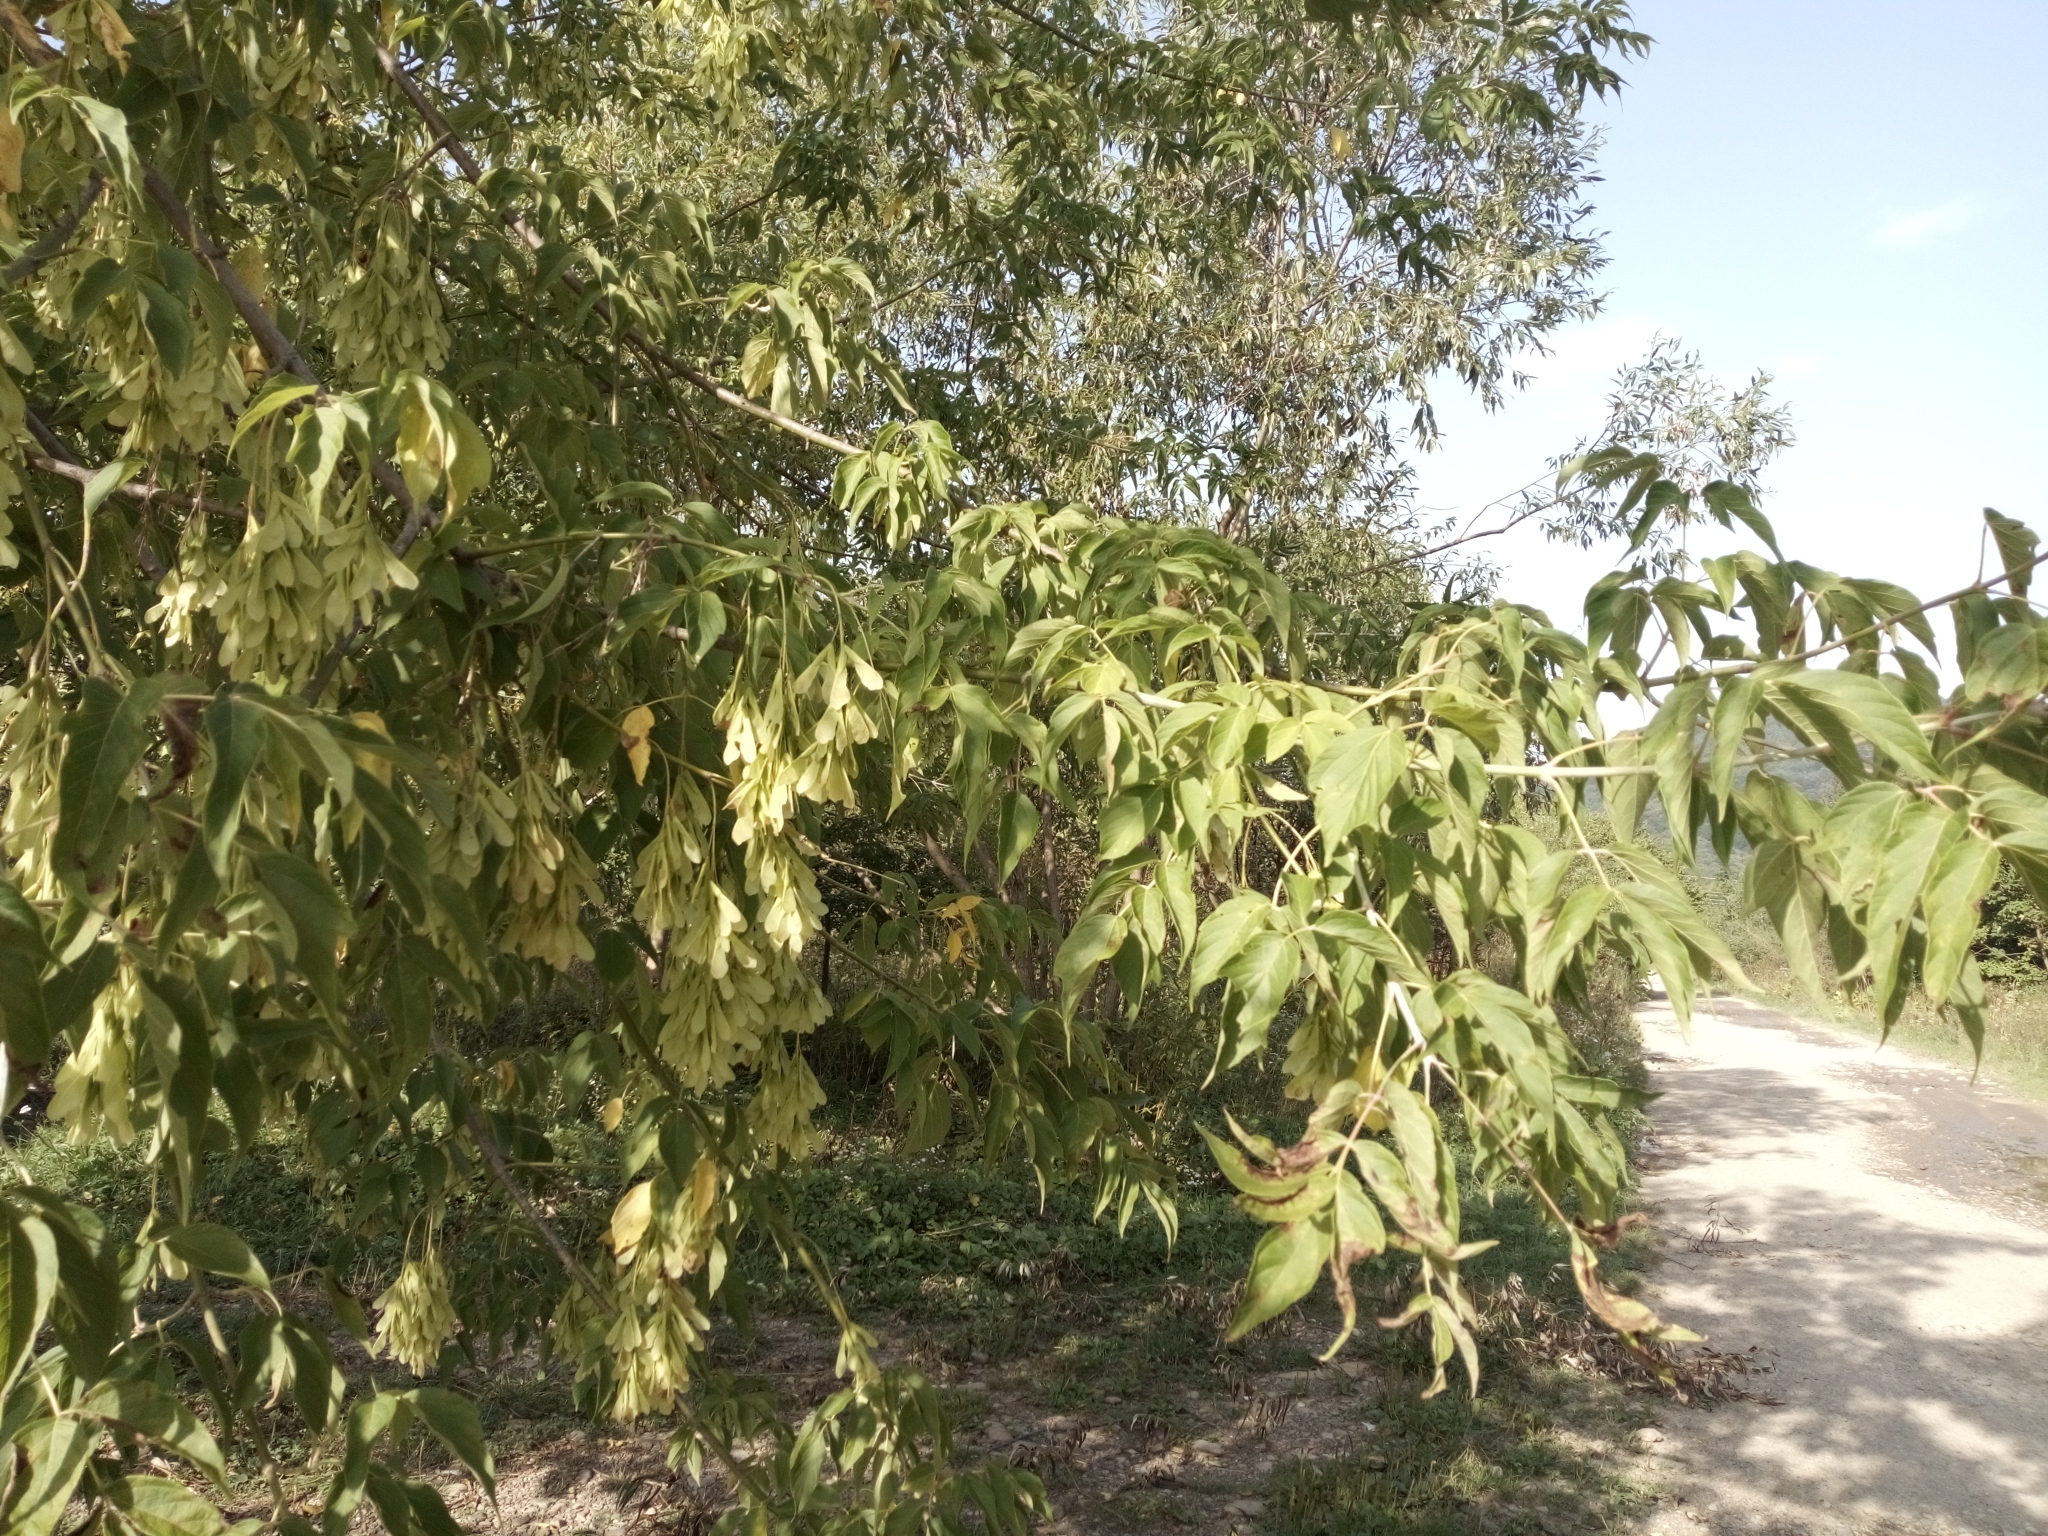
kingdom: Plantae
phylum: Tracheophyta
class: Magnoliopsida
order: Sapindales
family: Sapindaceae
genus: Acer
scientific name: Acer negundo
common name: Ashleaf maple
